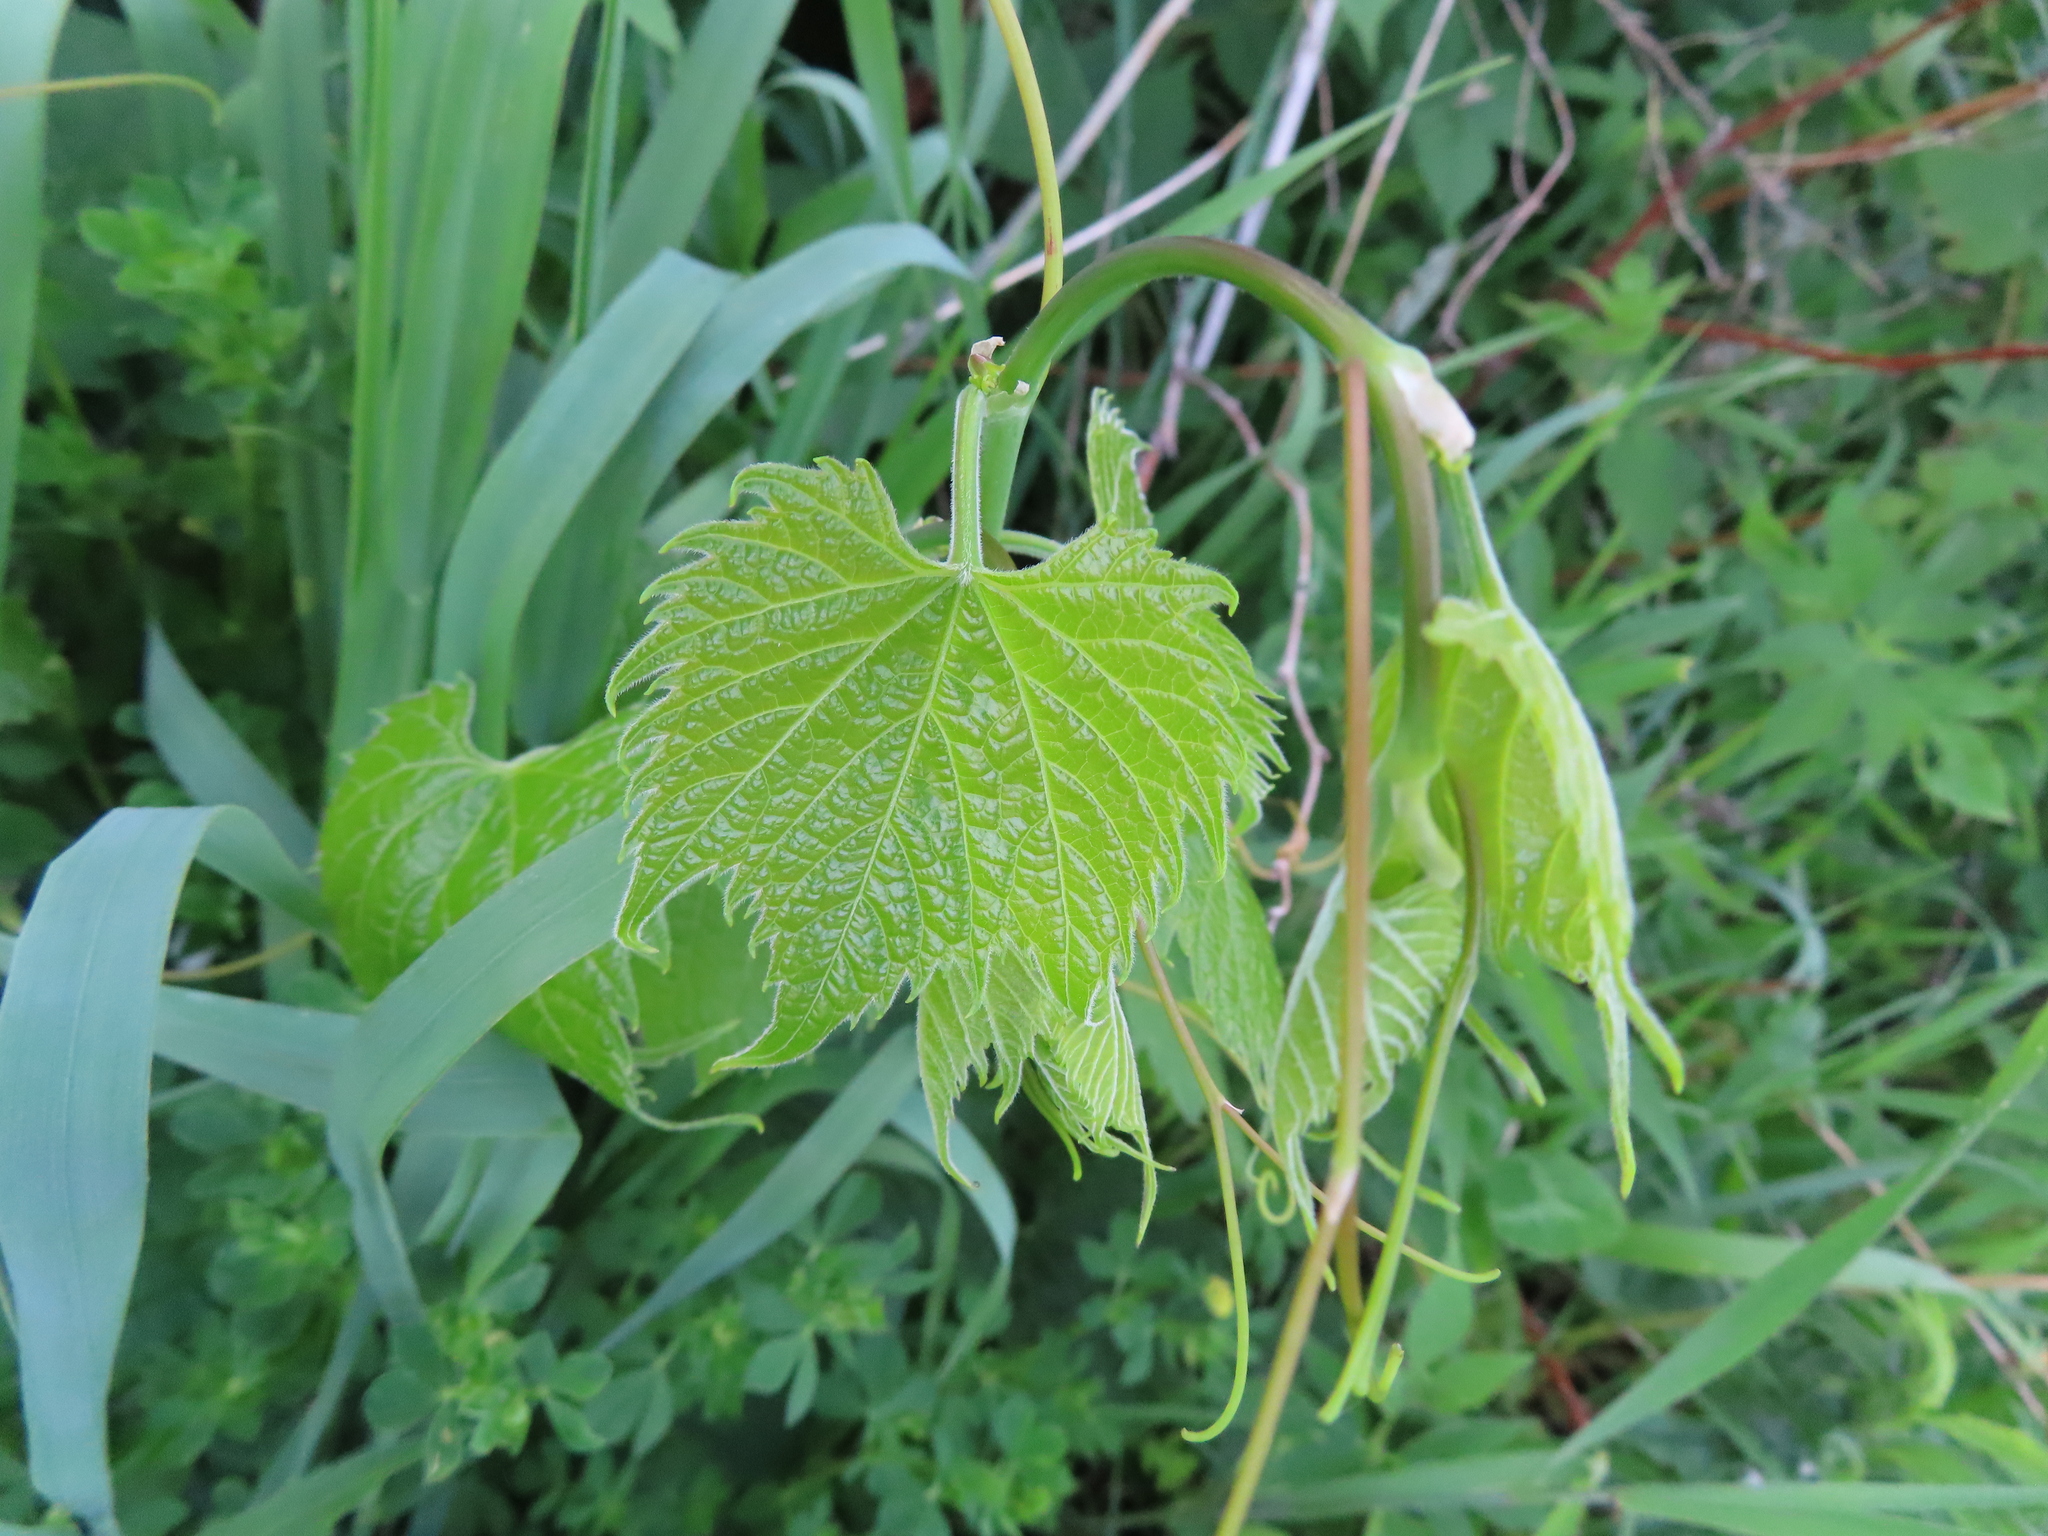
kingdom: Plantae
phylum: Tracheophyta
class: Magnoliopsida
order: Vitales
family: Vitaceae
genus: Vitis
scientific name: Vitis riparia
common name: Frost grape
